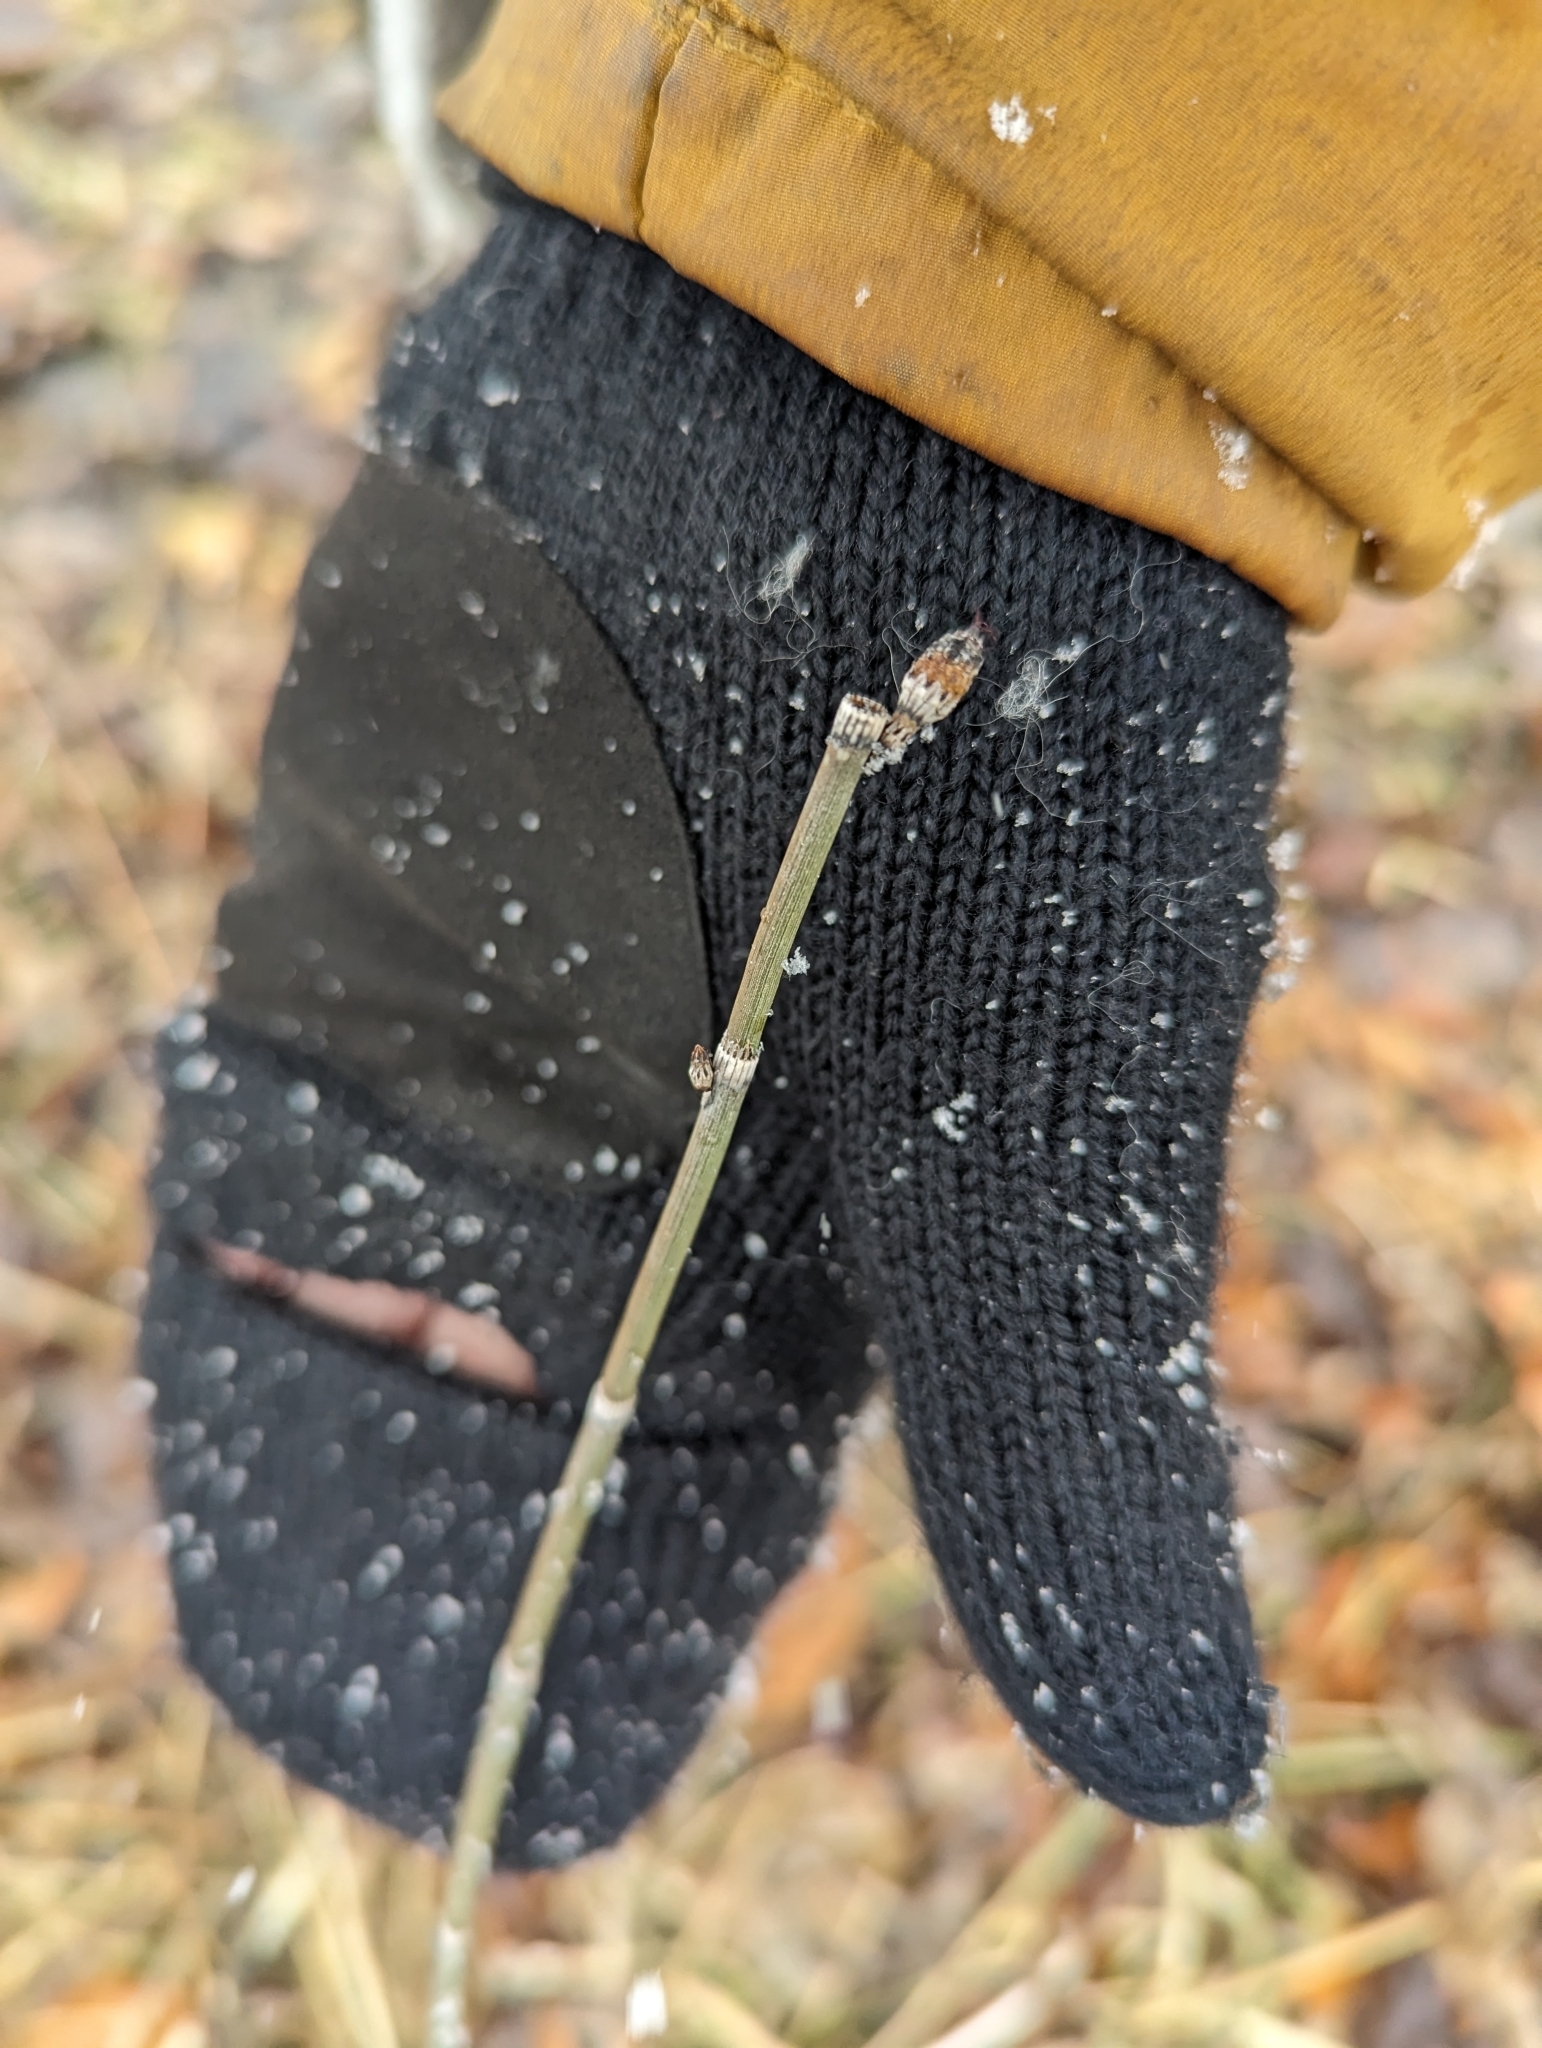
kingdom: Plantae
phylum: Tracheophyta
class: Polypodiopsida
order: Equisetales
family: Equisetaceae
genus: Equisetum
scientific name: Equisetum praealtum
